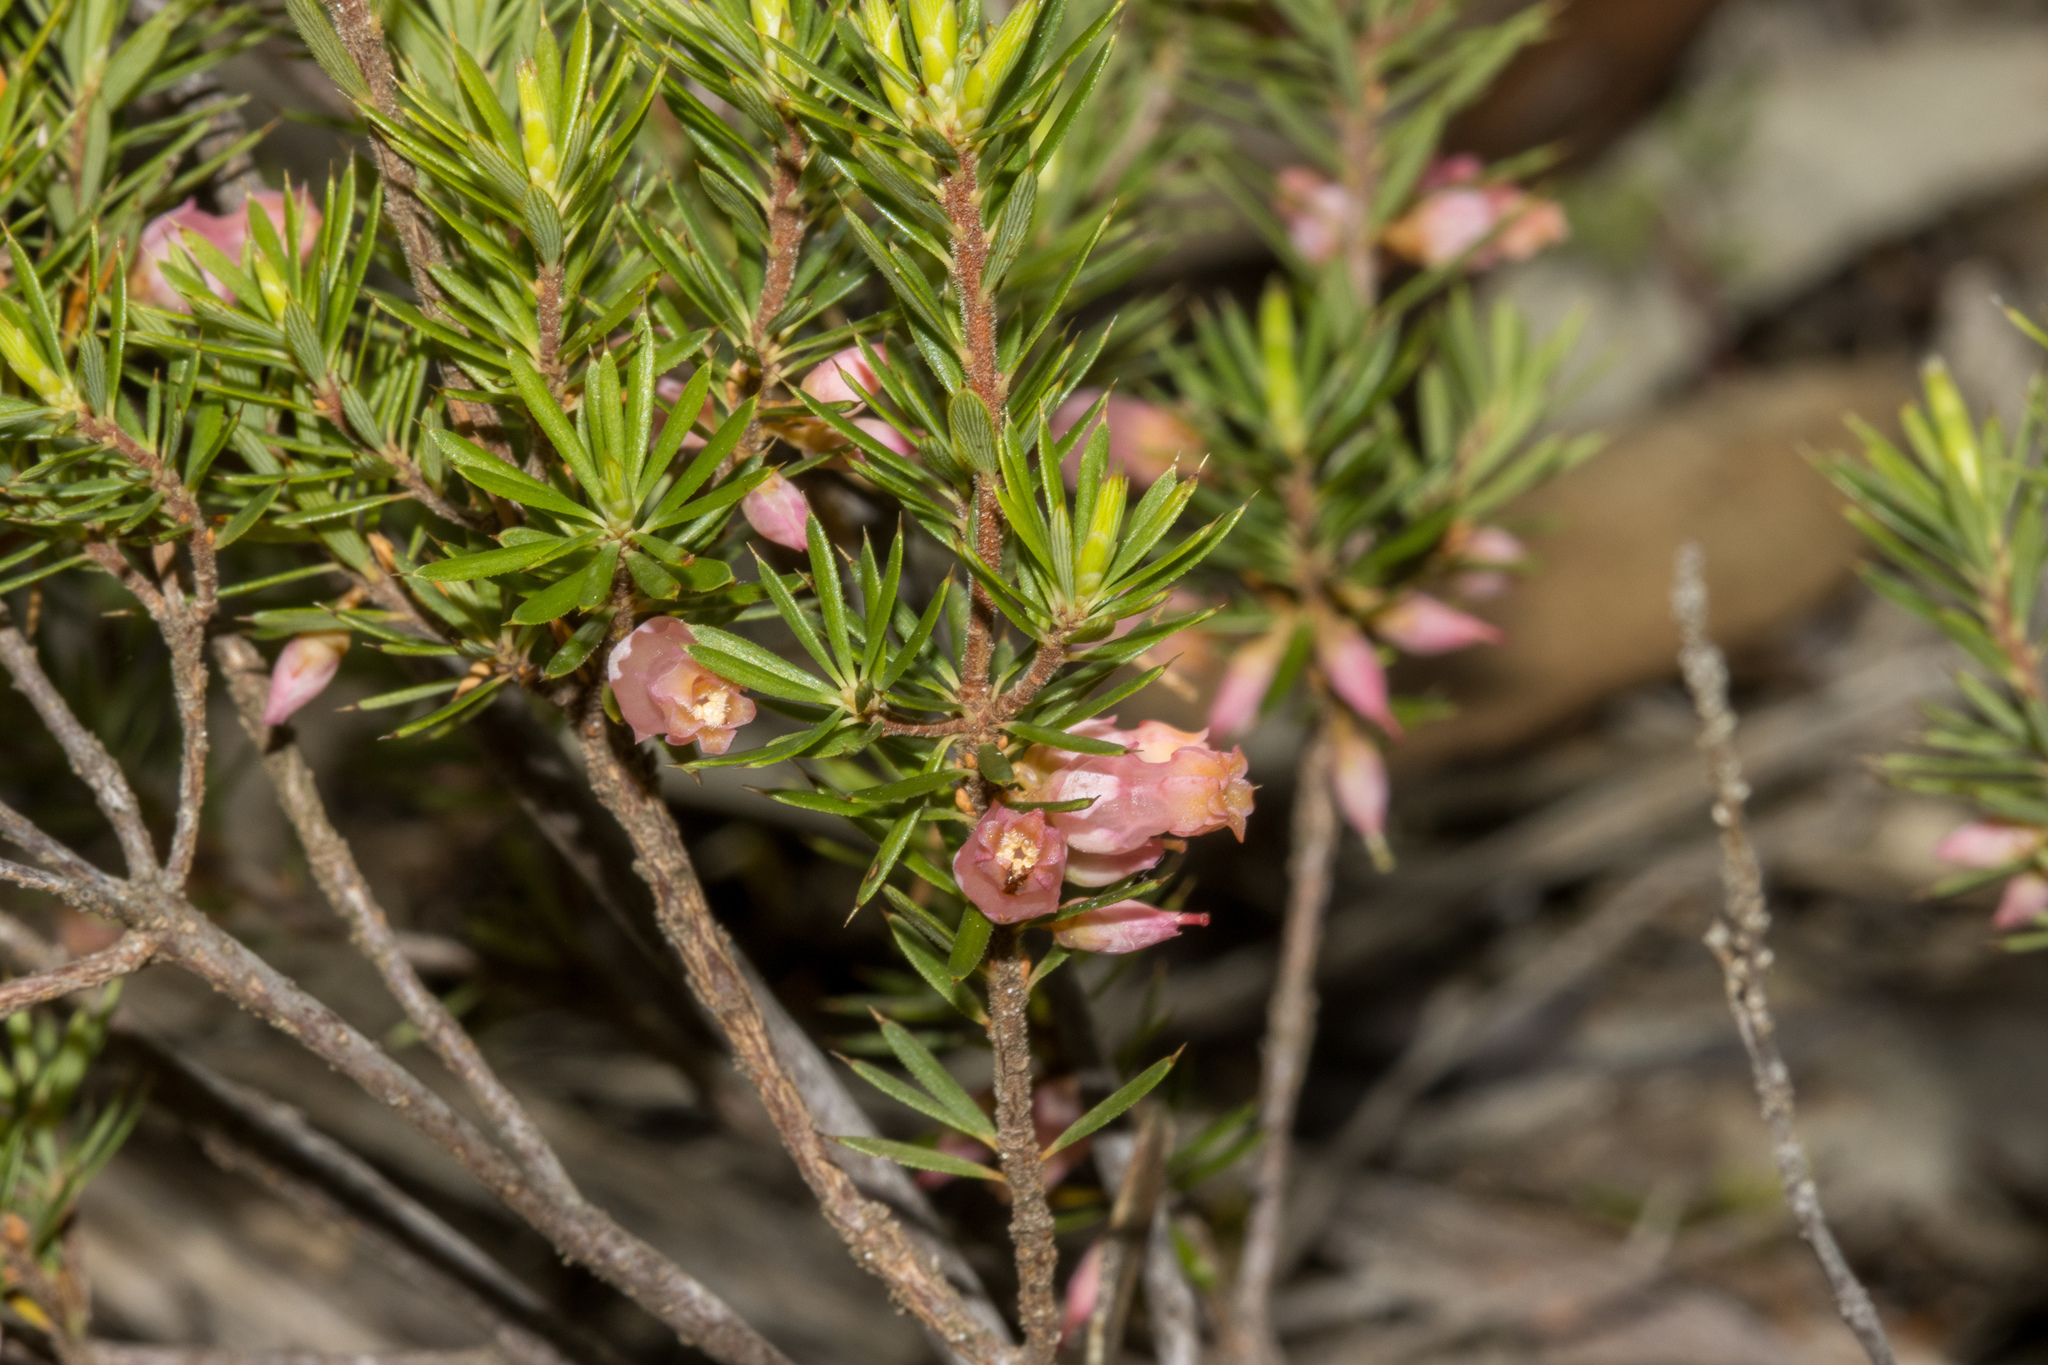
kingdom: Plantae
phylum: Tracheophyta
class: Magnoliopsida
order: Ericales
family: Ericaceae
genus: Brachyloma
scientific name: Brachyloma ericoides
